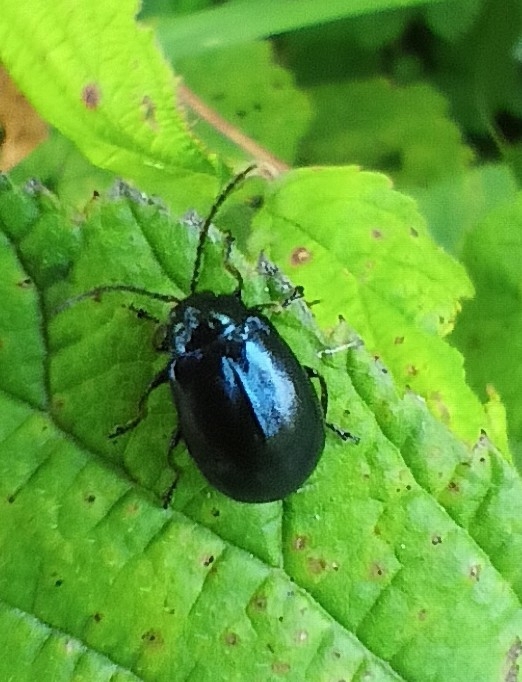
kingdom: Animalia
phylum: Arthropoda
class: Insecta
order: Coleoptera
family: Chrysomelidae
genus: Agelastica
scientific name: Agelastica alni
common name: Alder leaf beetle
